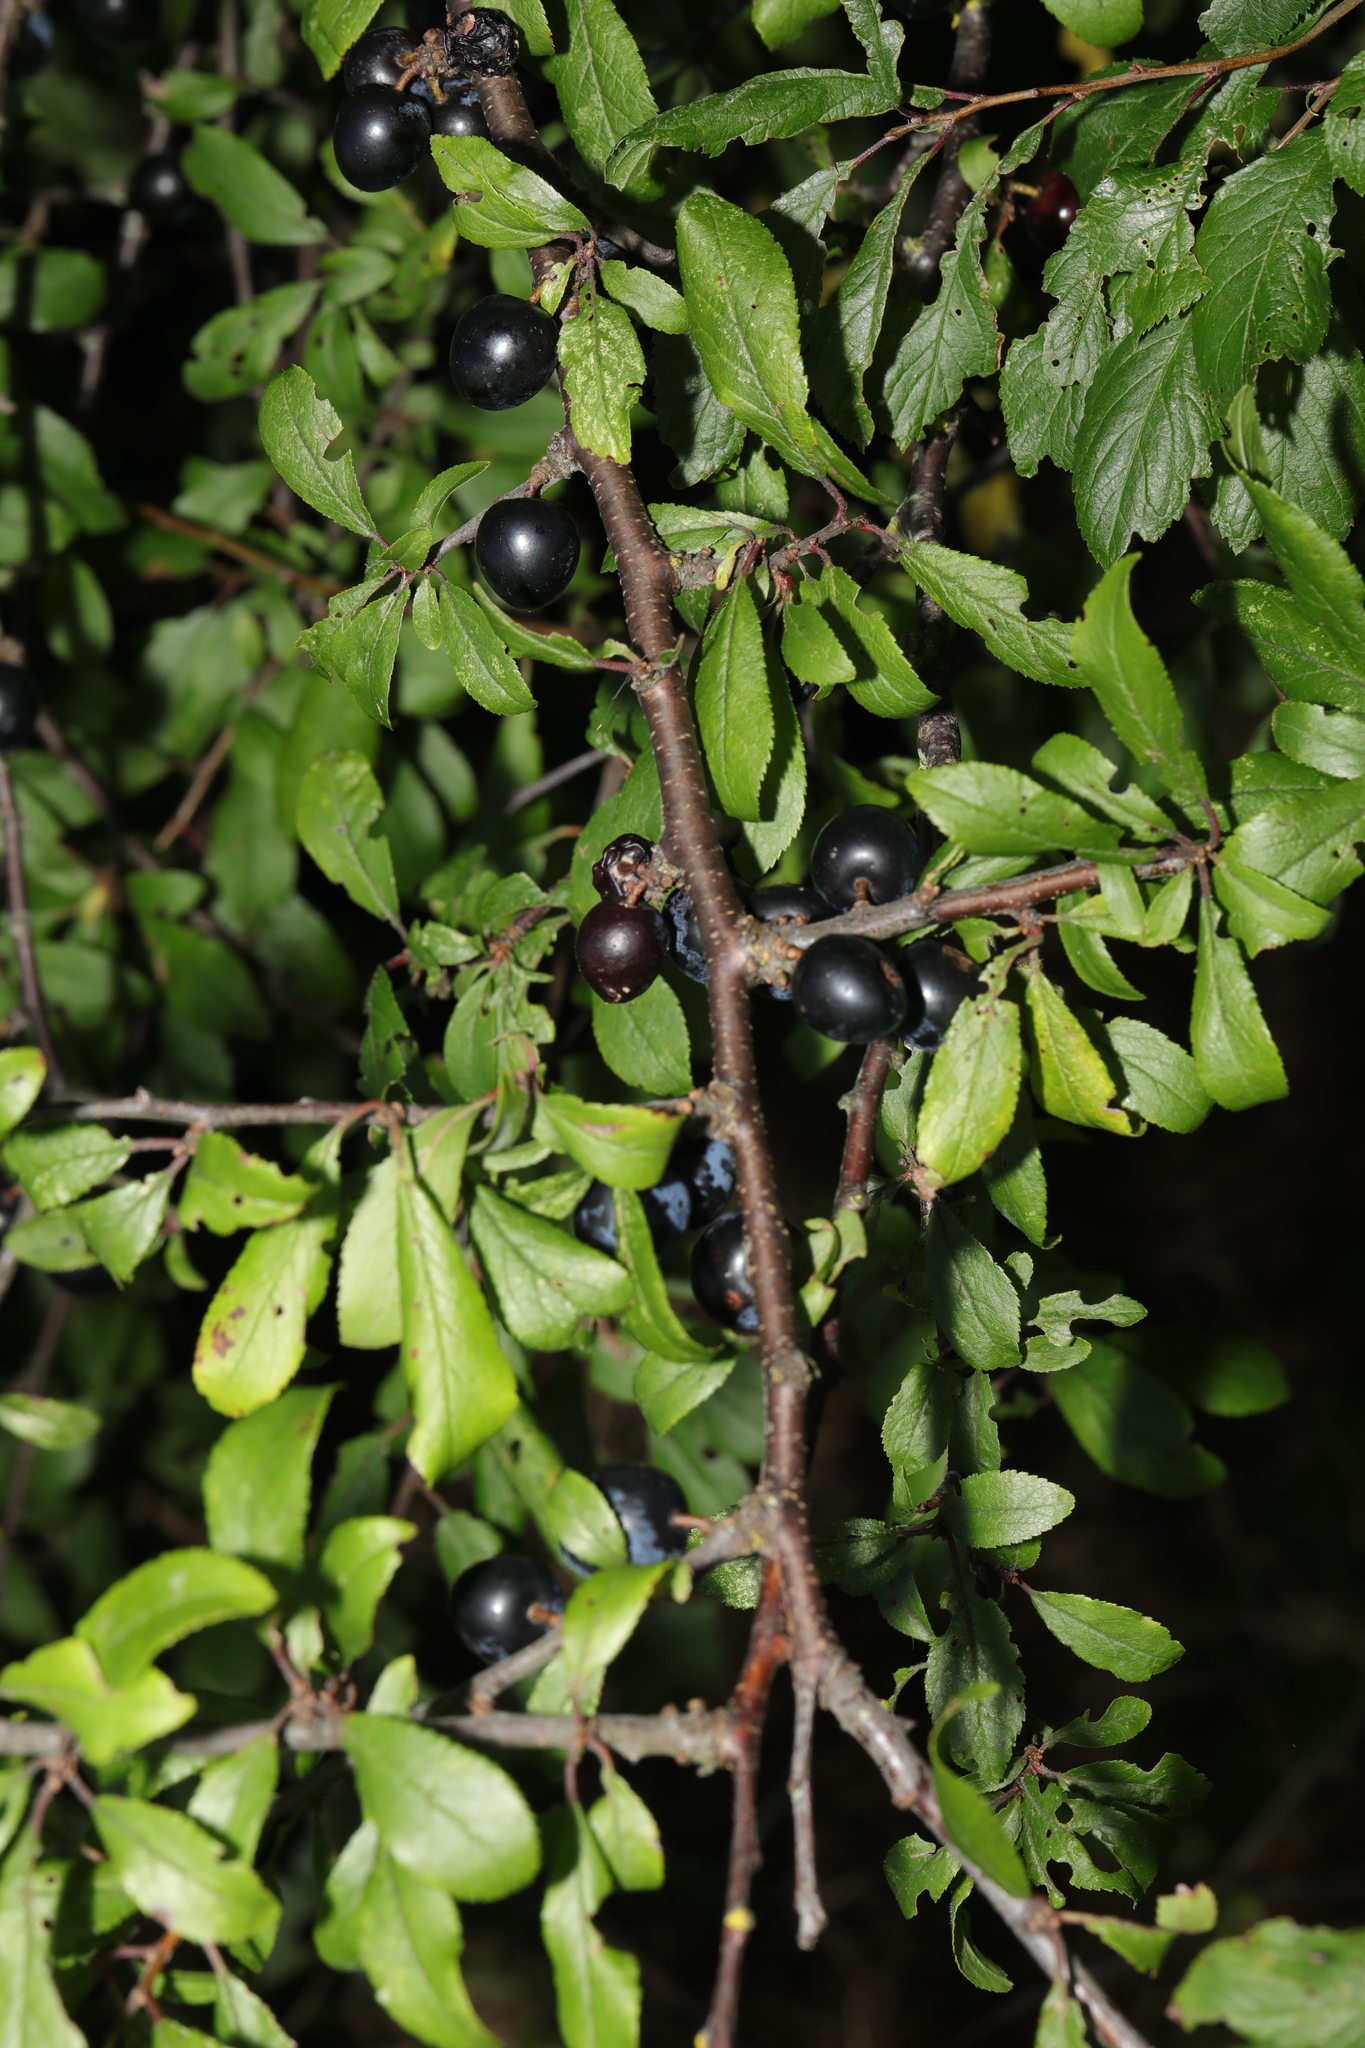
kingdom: Plantae
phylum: Tracheophyta
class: Magnoliopsida
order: Rosales
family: Rosaceae
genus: Prunus
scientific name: Prunus spinosa
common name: Blackthorn
